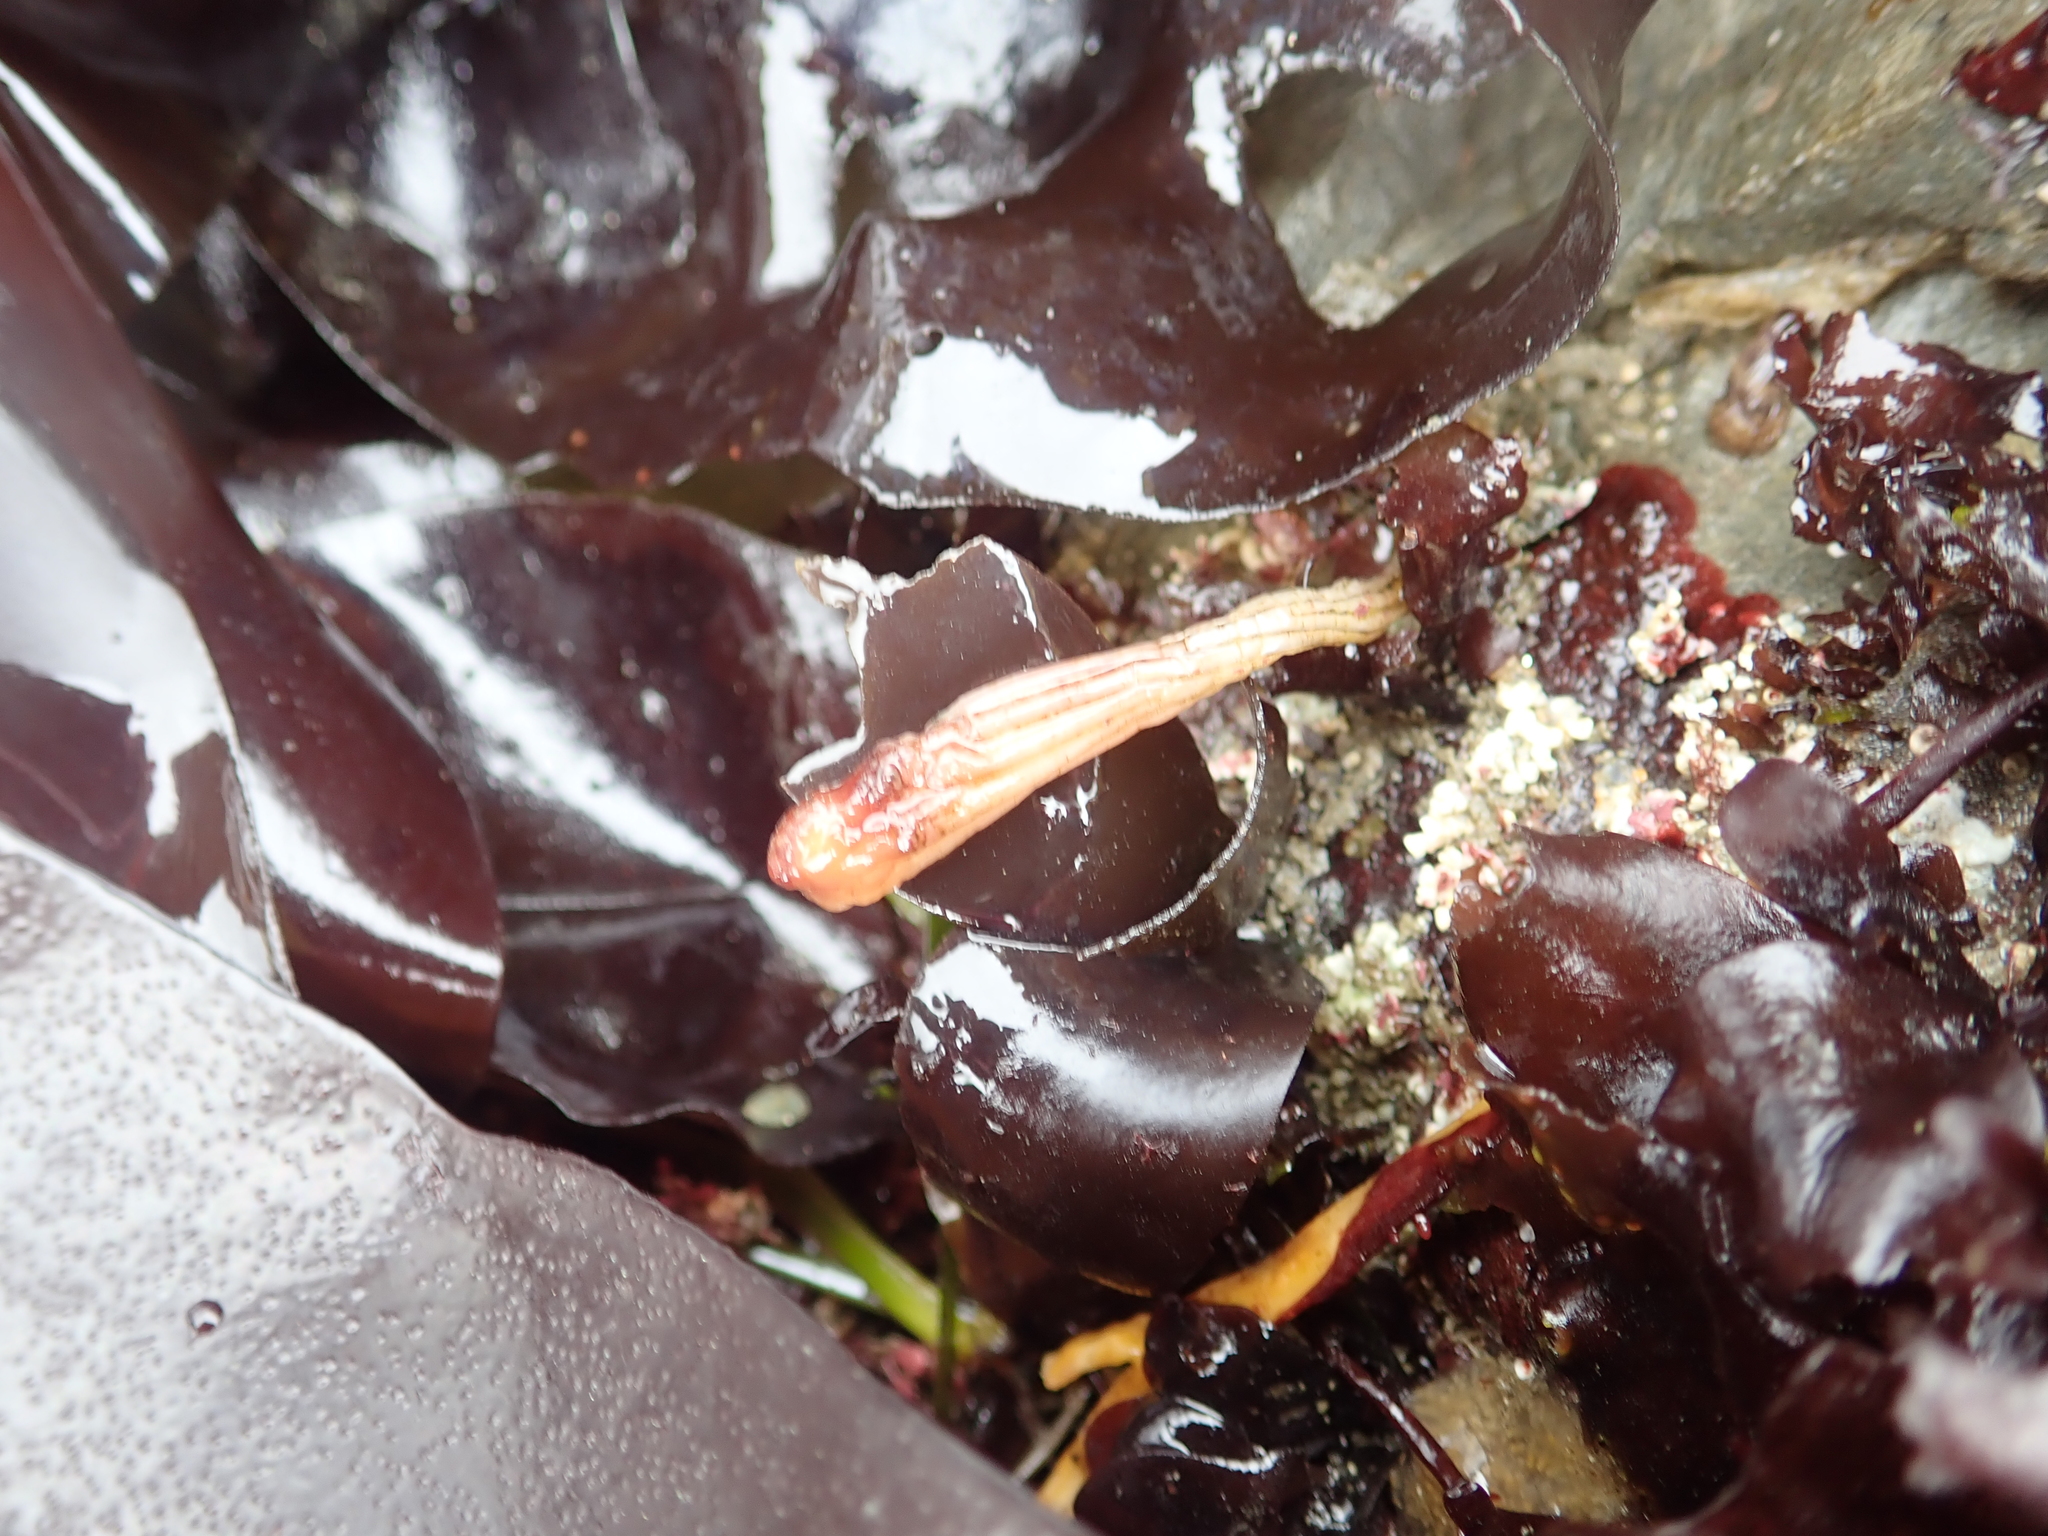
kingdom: Animalia
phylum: Chordata
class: Ascidiacea
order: Stolidobranchia
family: Styelidae
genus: Styela
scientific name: Styela montereyensis
